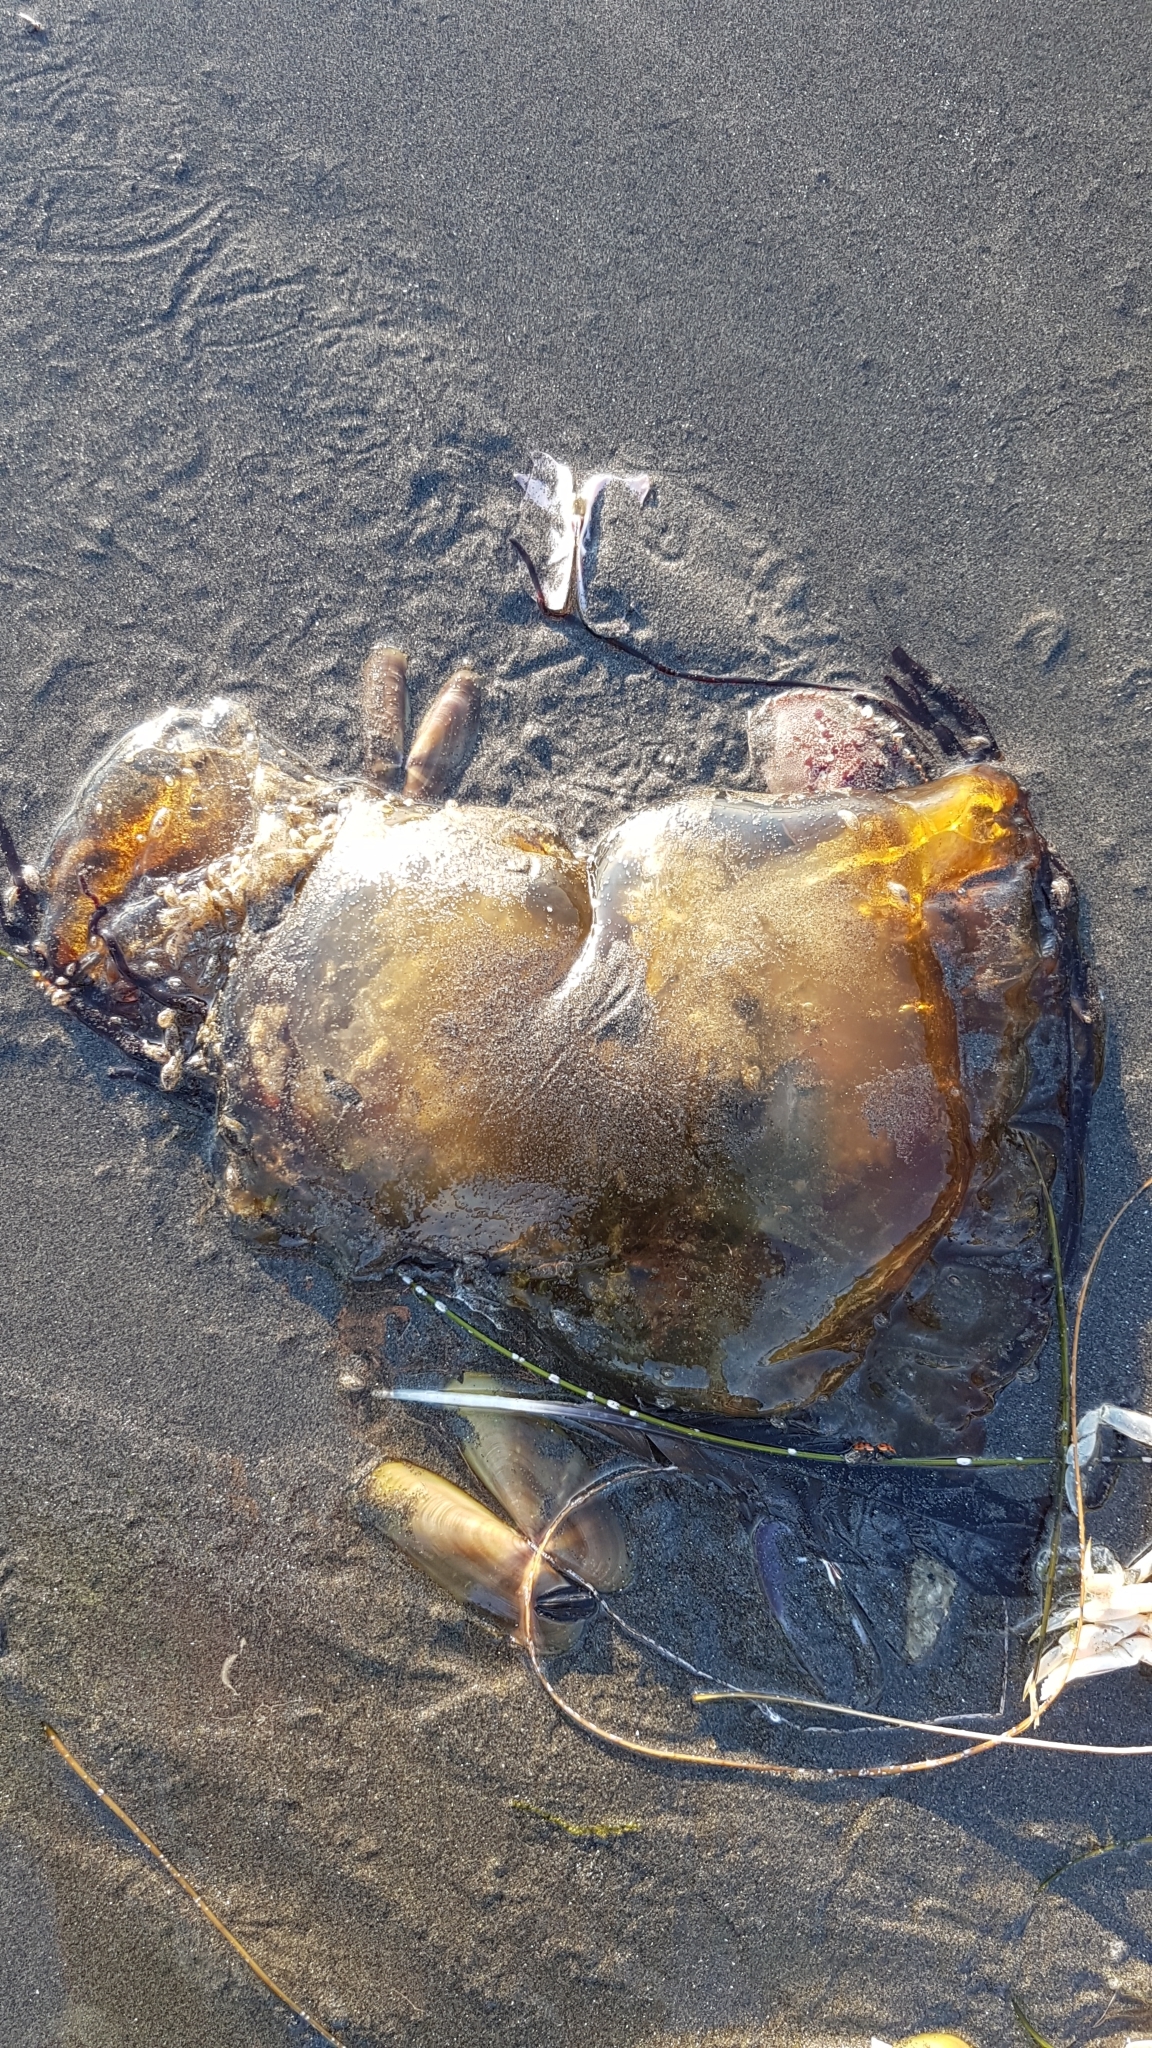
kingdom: Animalia
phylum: Cnidaria
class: Scyphozoa
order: Semaeostomeae
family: Pelagiidae
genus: Chrysaora
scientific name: Chrysaora fuscescens
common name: Sea nettle
